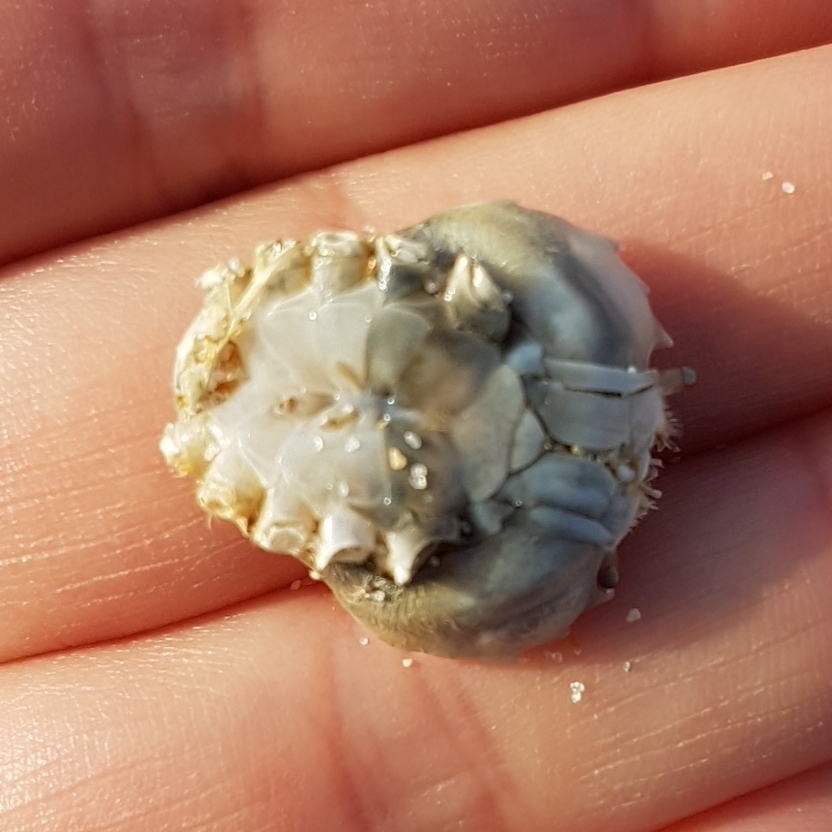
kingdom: Animalia
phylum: Arthropoda
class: Malacostraca
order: Decapoda
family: Carcinidae
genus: Portumnus
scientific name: Portumnus latipes
